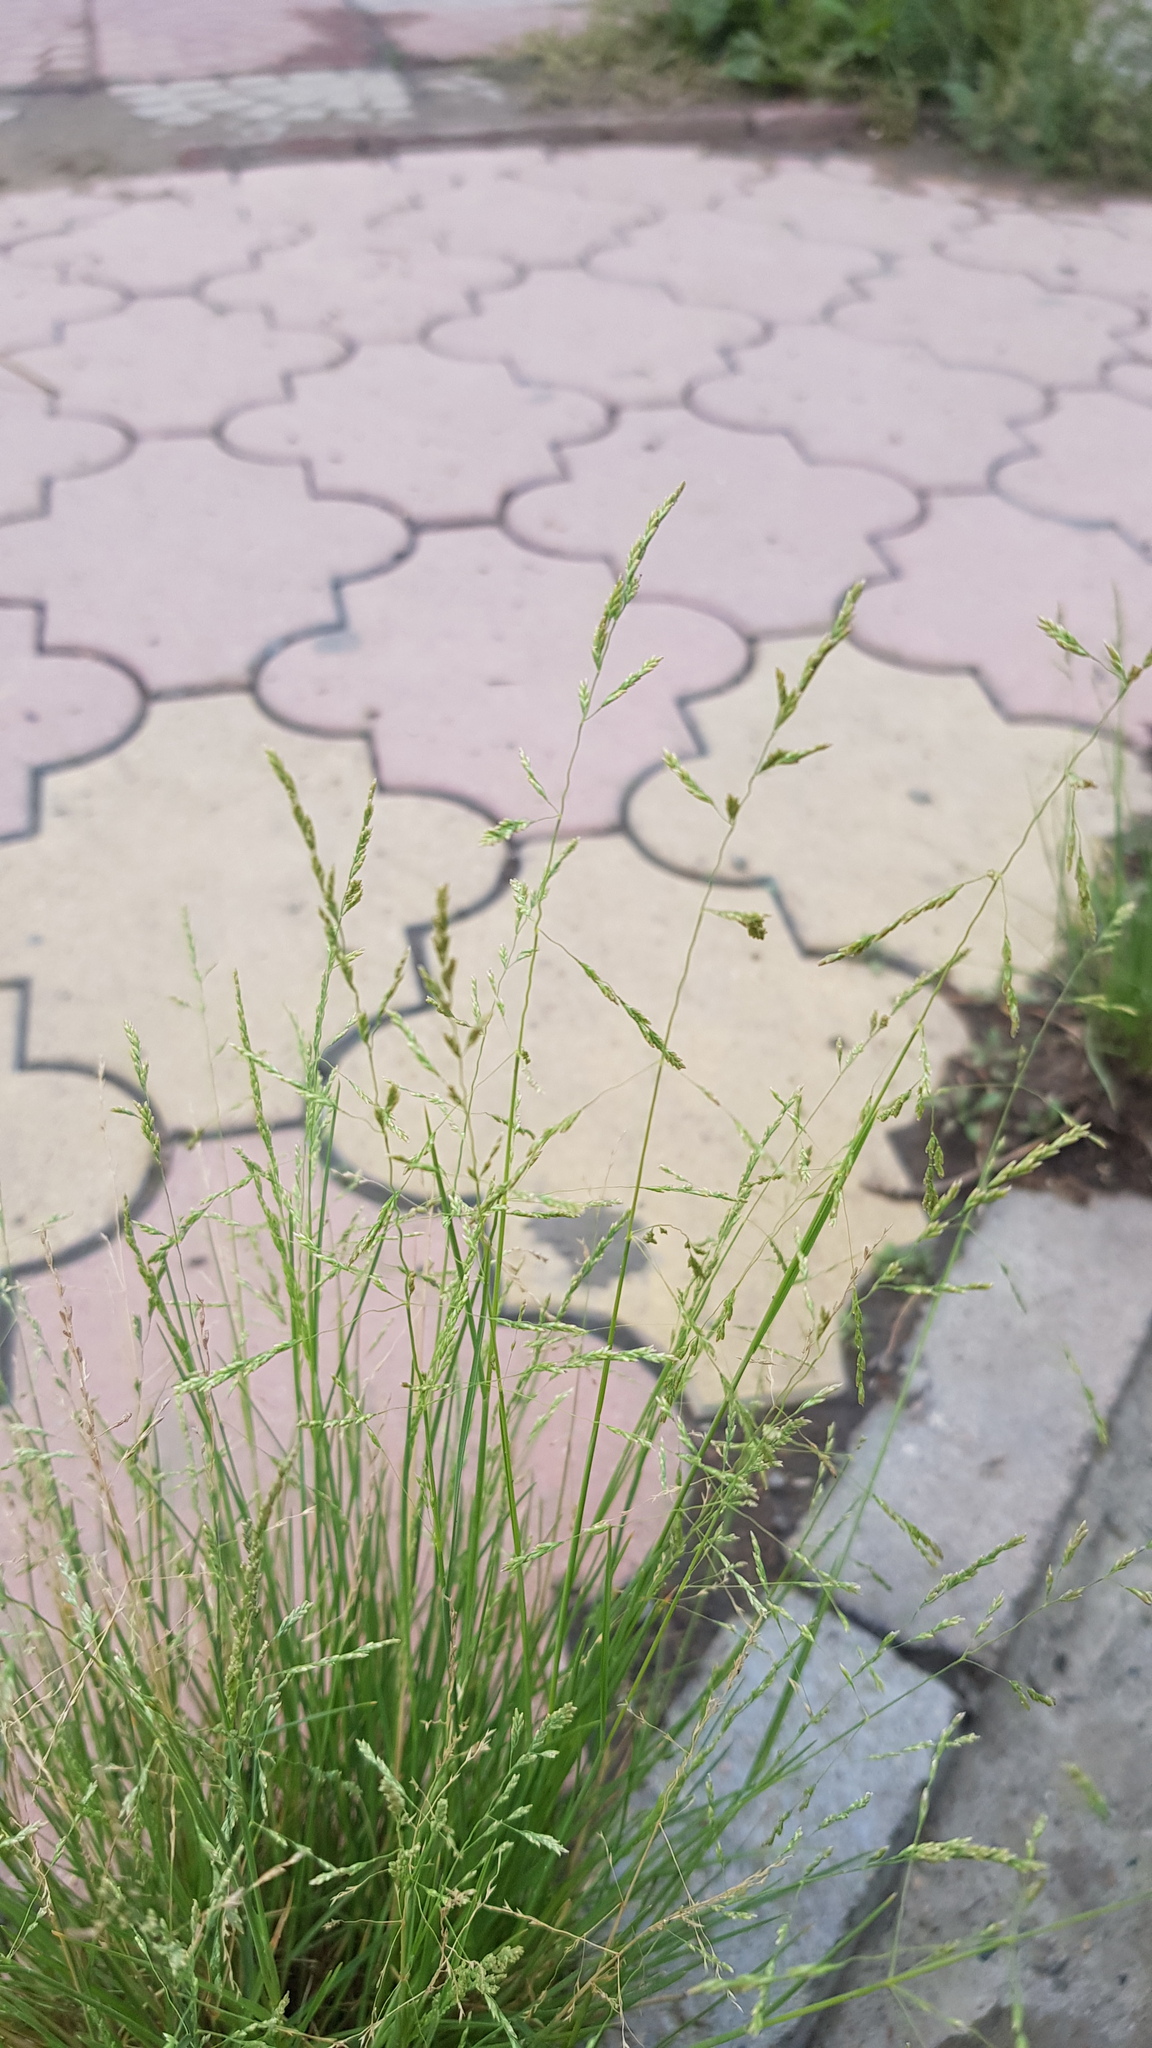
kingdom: Plantae
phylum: Tracheophyta
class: Liliopsida
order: Poales
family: Poaceae
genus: Puccinellia
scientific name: Puccinellia distans
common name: Weeping alkaligrass
